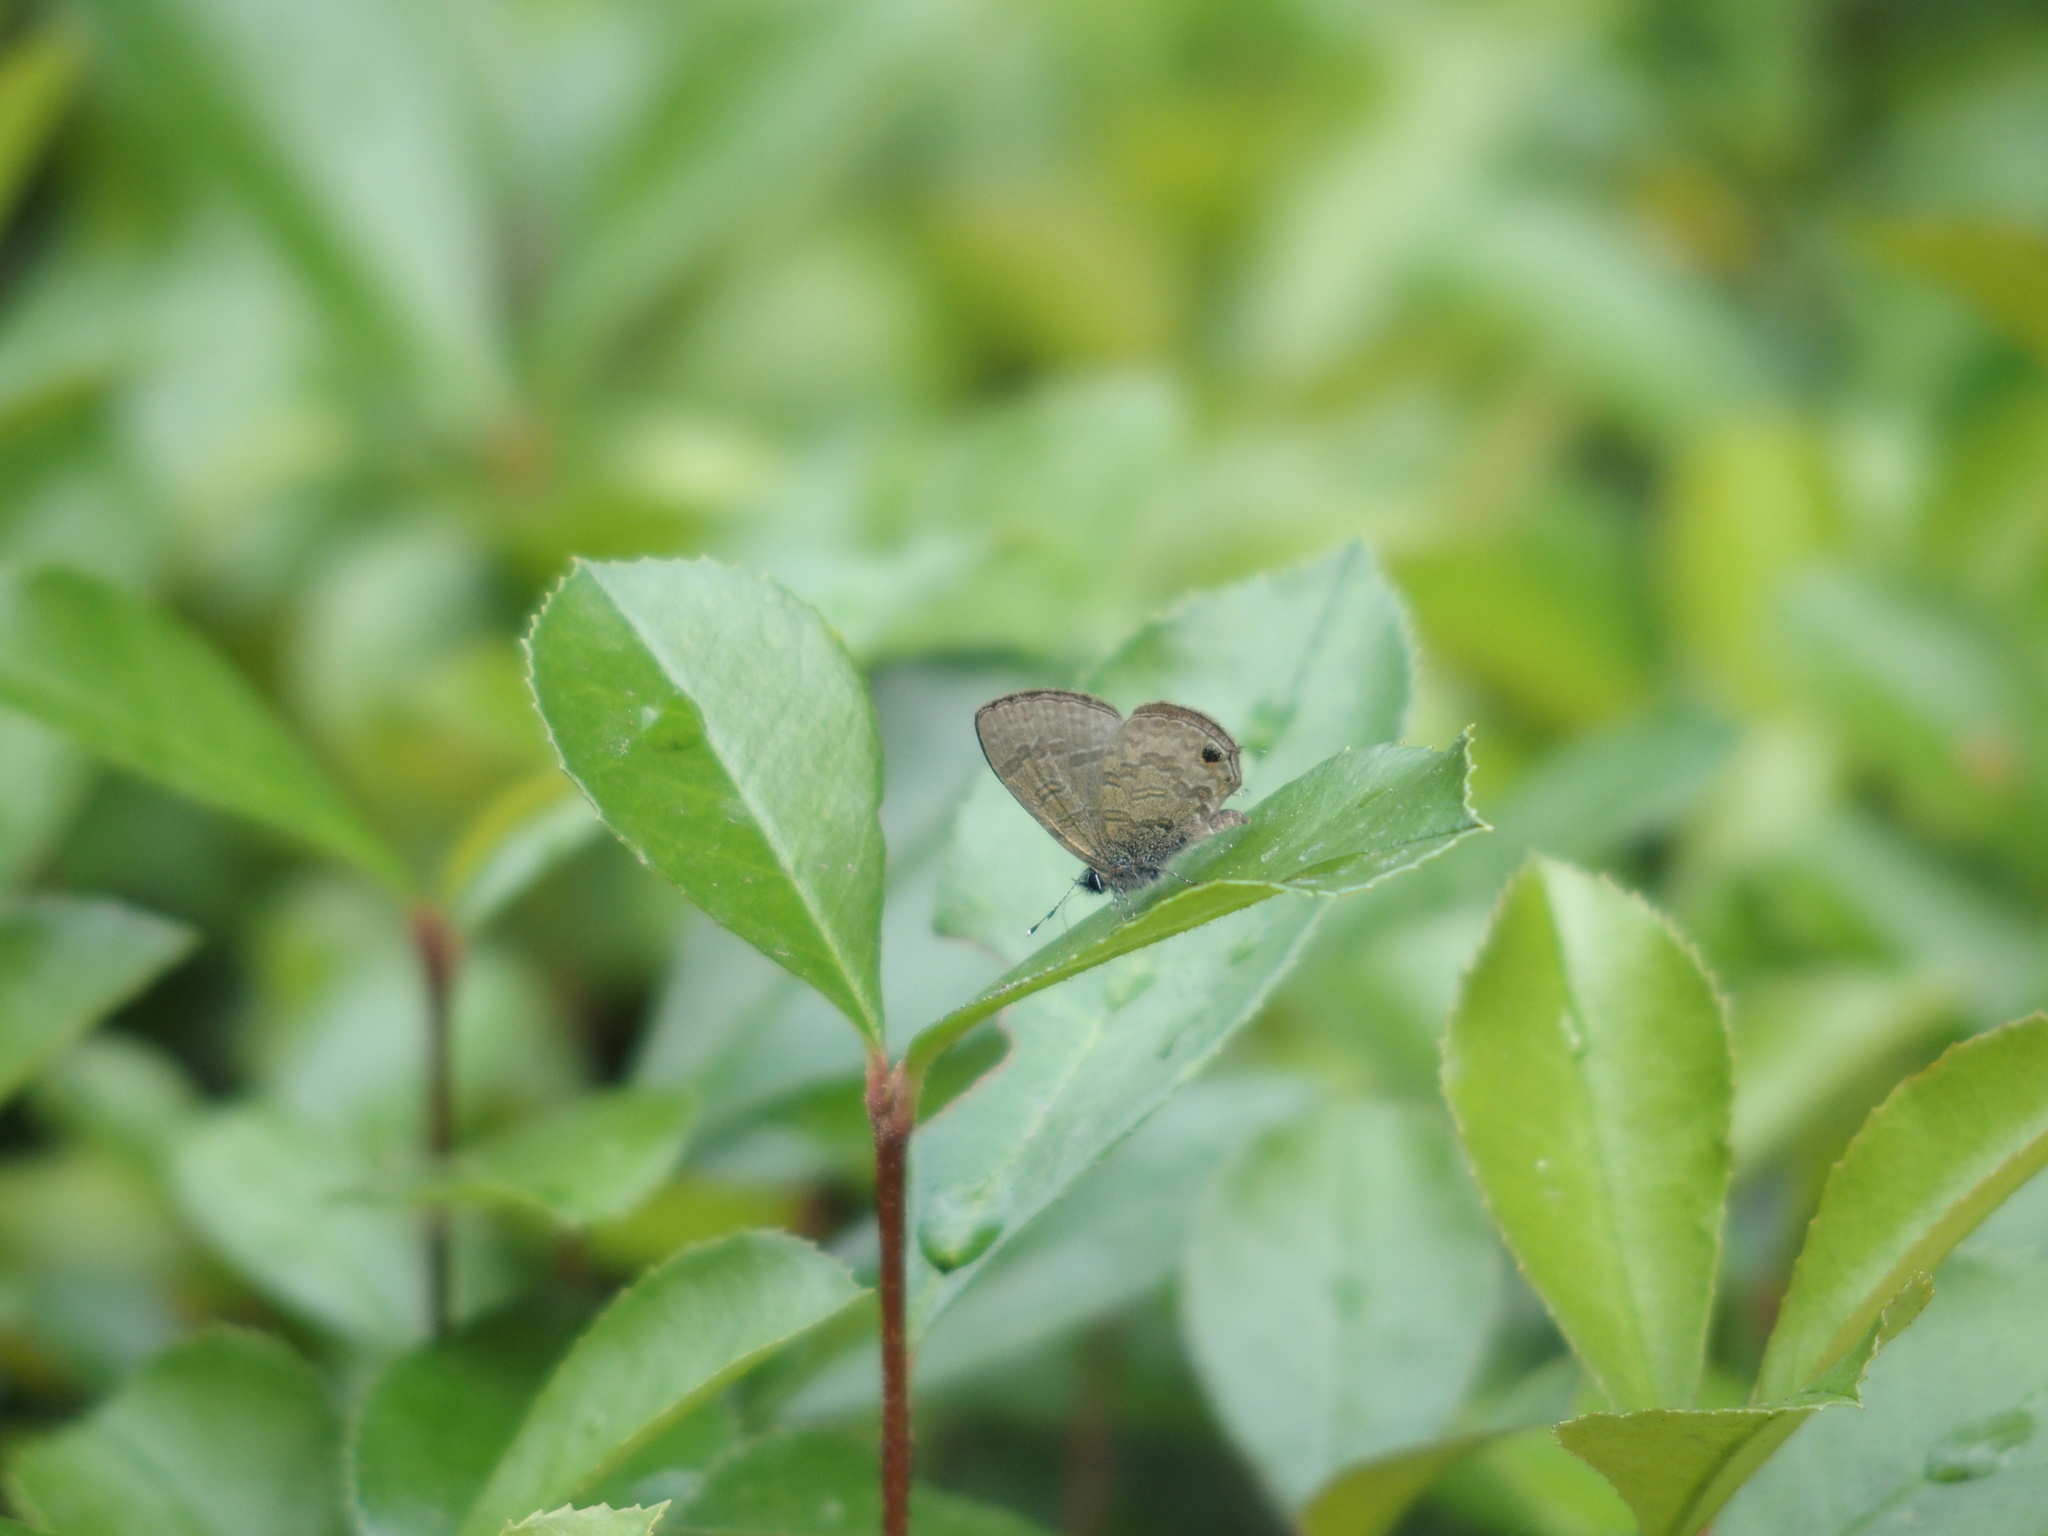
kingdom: Animalia
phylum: Arthropoda
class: Insecta
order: Lepidoptera
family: Lycaenidae
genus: Prosotas
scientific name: Prosotas nora
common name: Common line blue
